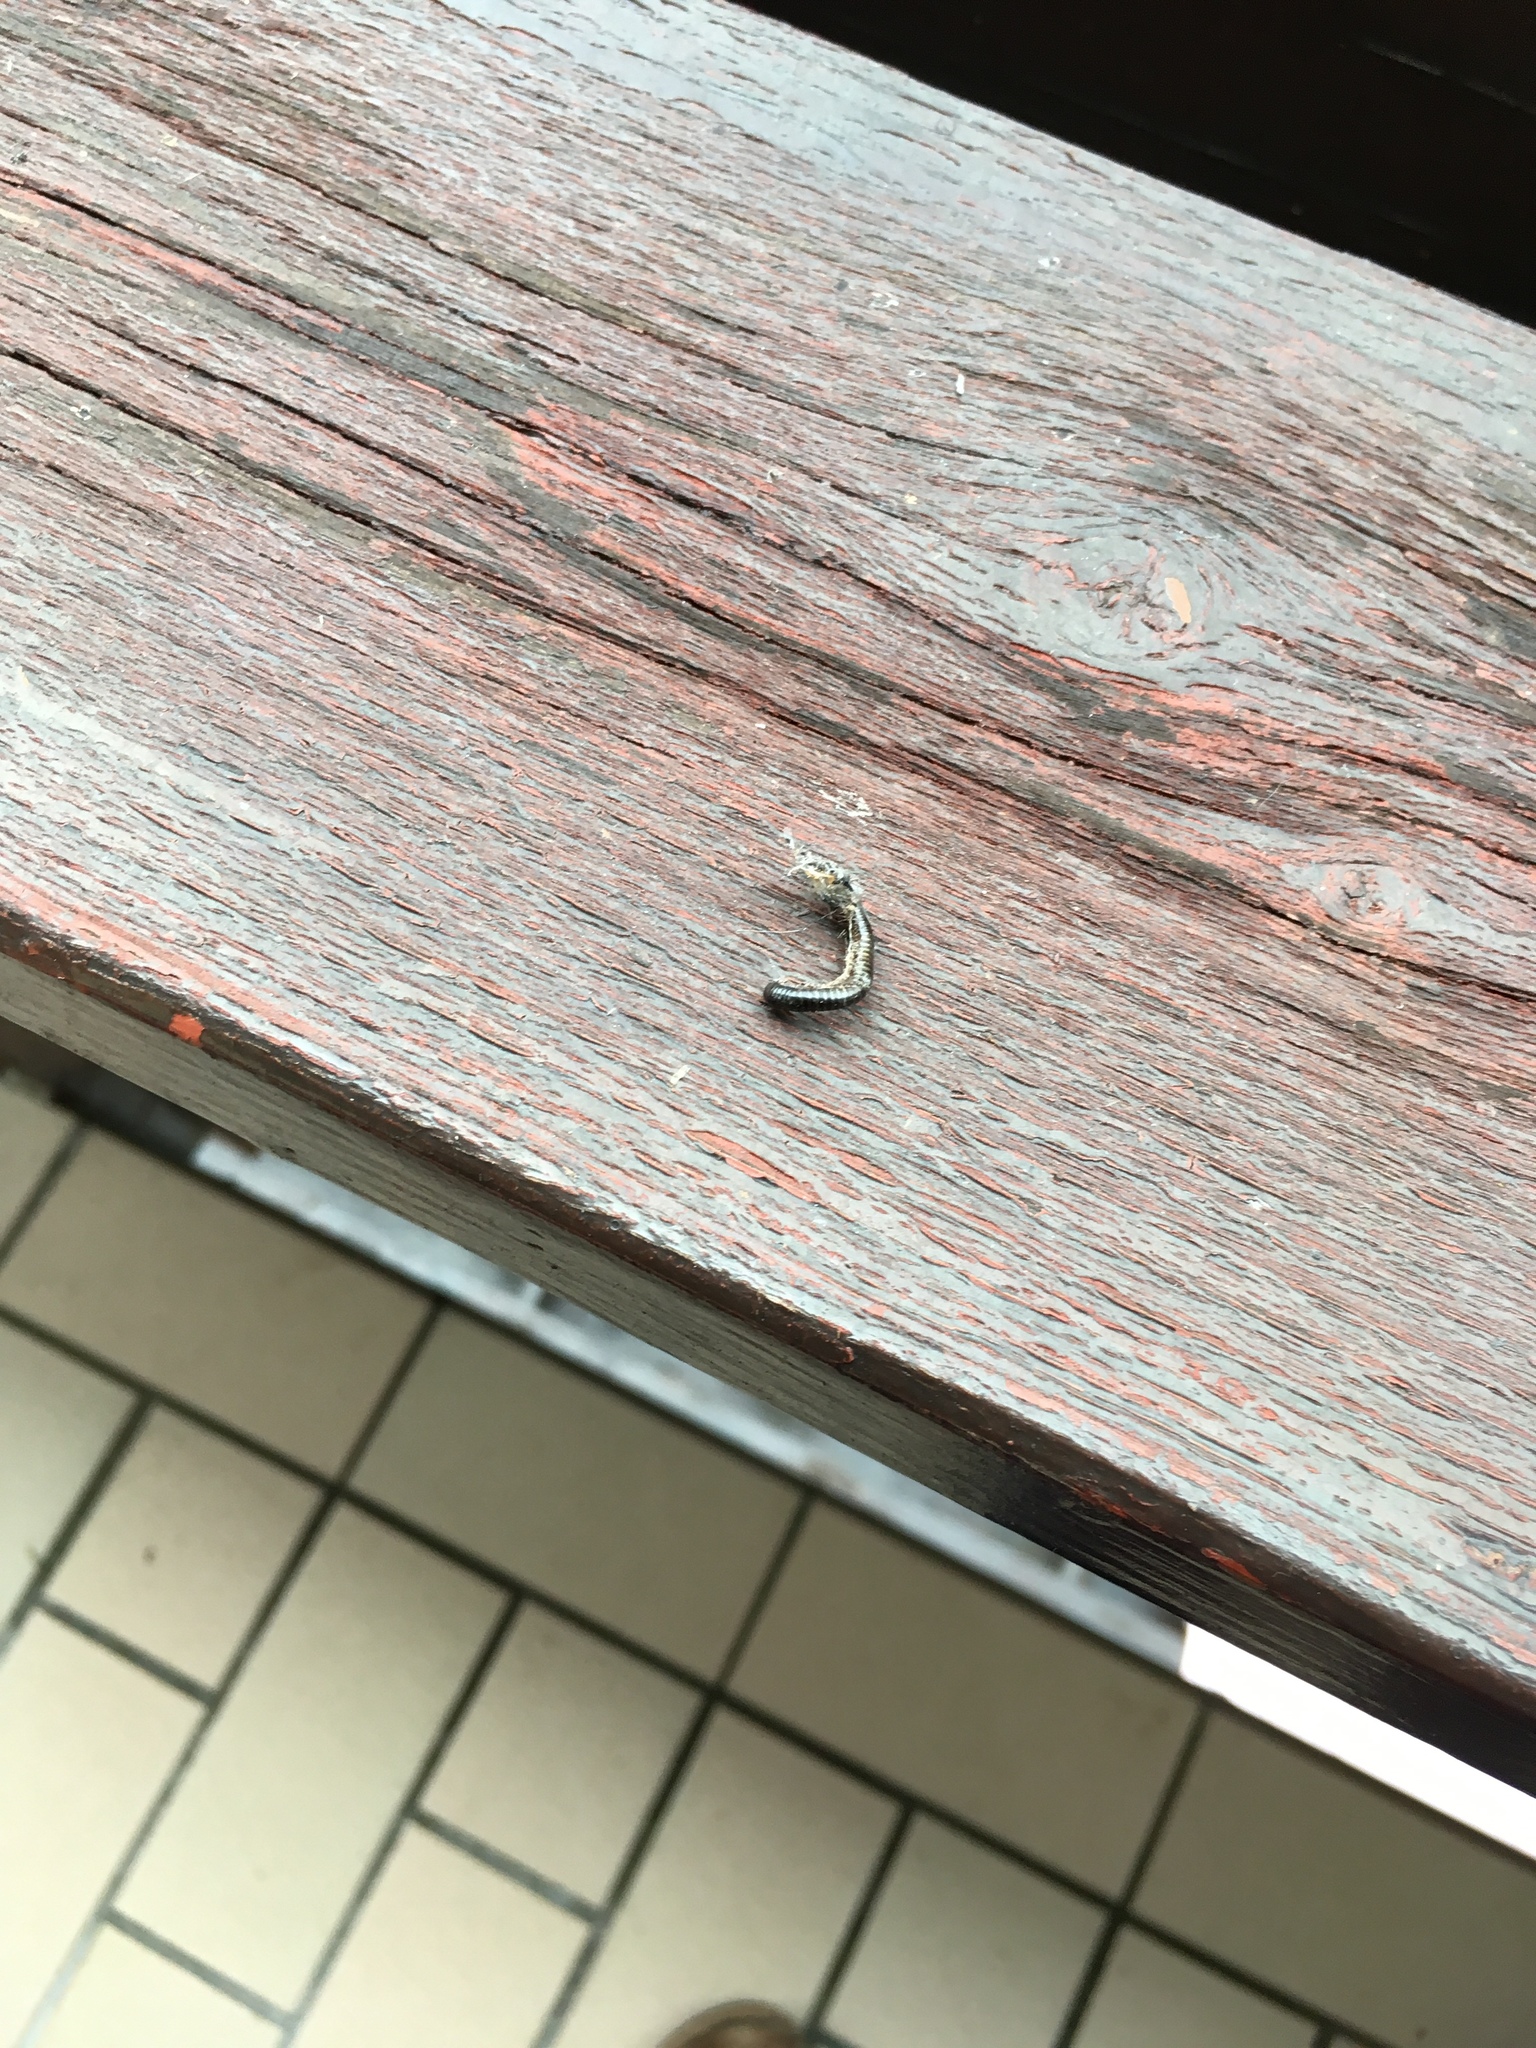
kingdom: Animalia
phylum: Arthropoda
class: Diplopoda
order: Julida
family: Julidae
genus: Cylindroiulus
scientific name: Cylindroiulus caeruleocinctus
